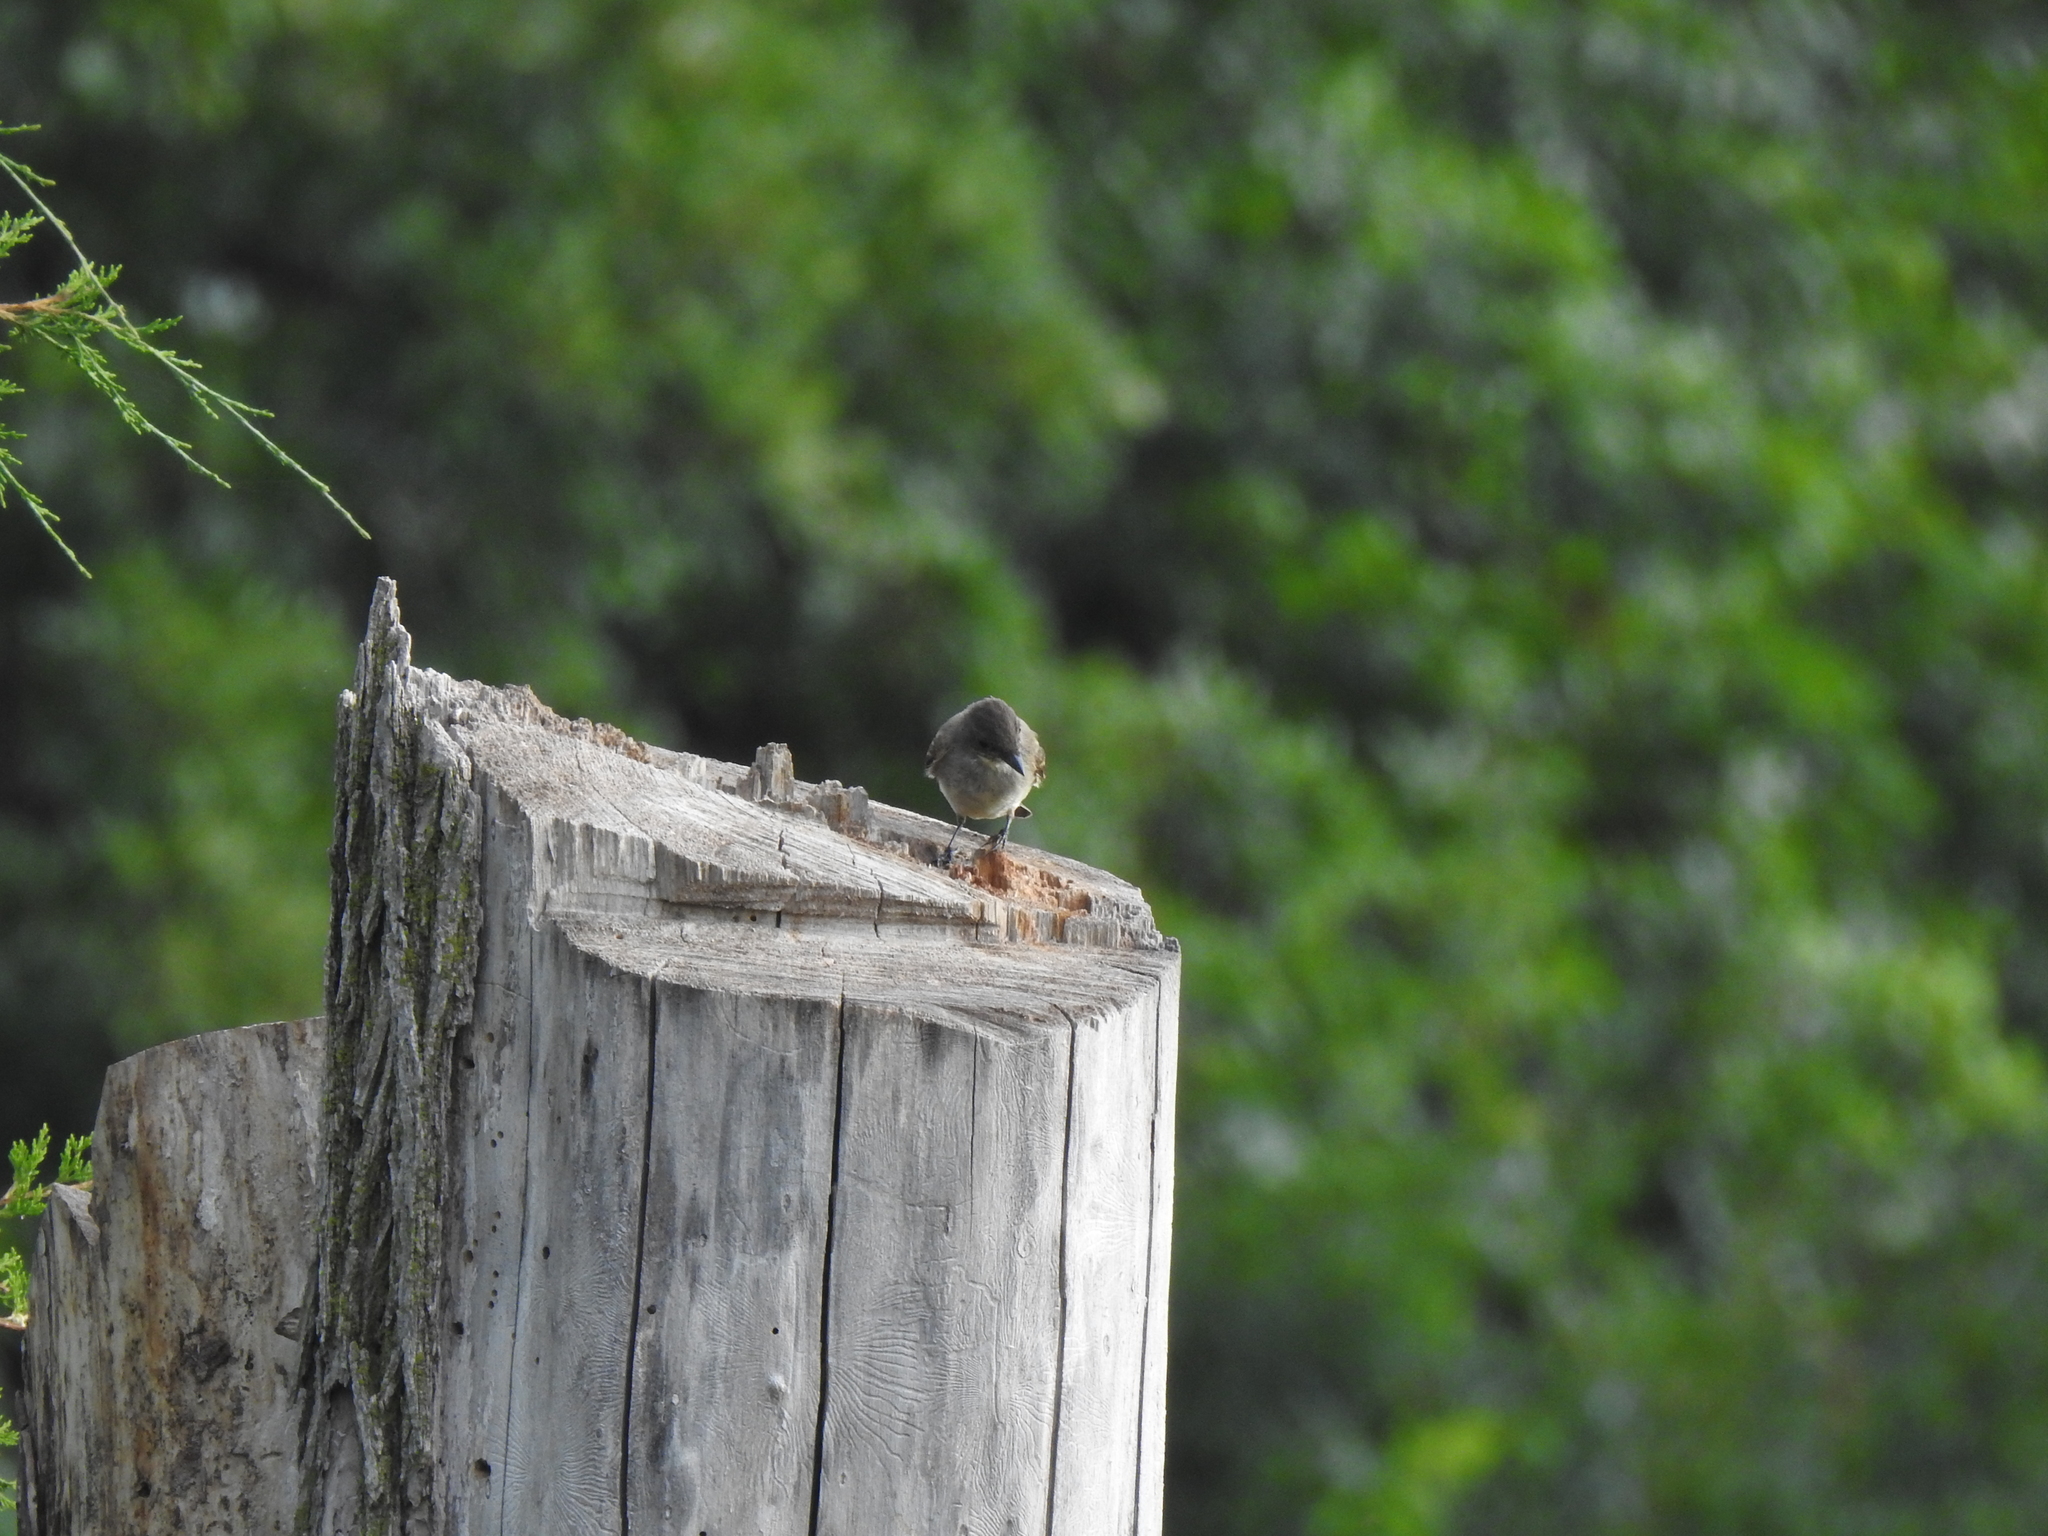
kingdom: Animalia
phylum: Chordata
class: Aves
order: Passeriformes
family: Tyrannidae
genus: Sayornis
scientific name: Sayornis phoebe
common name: Eastern phoebe
